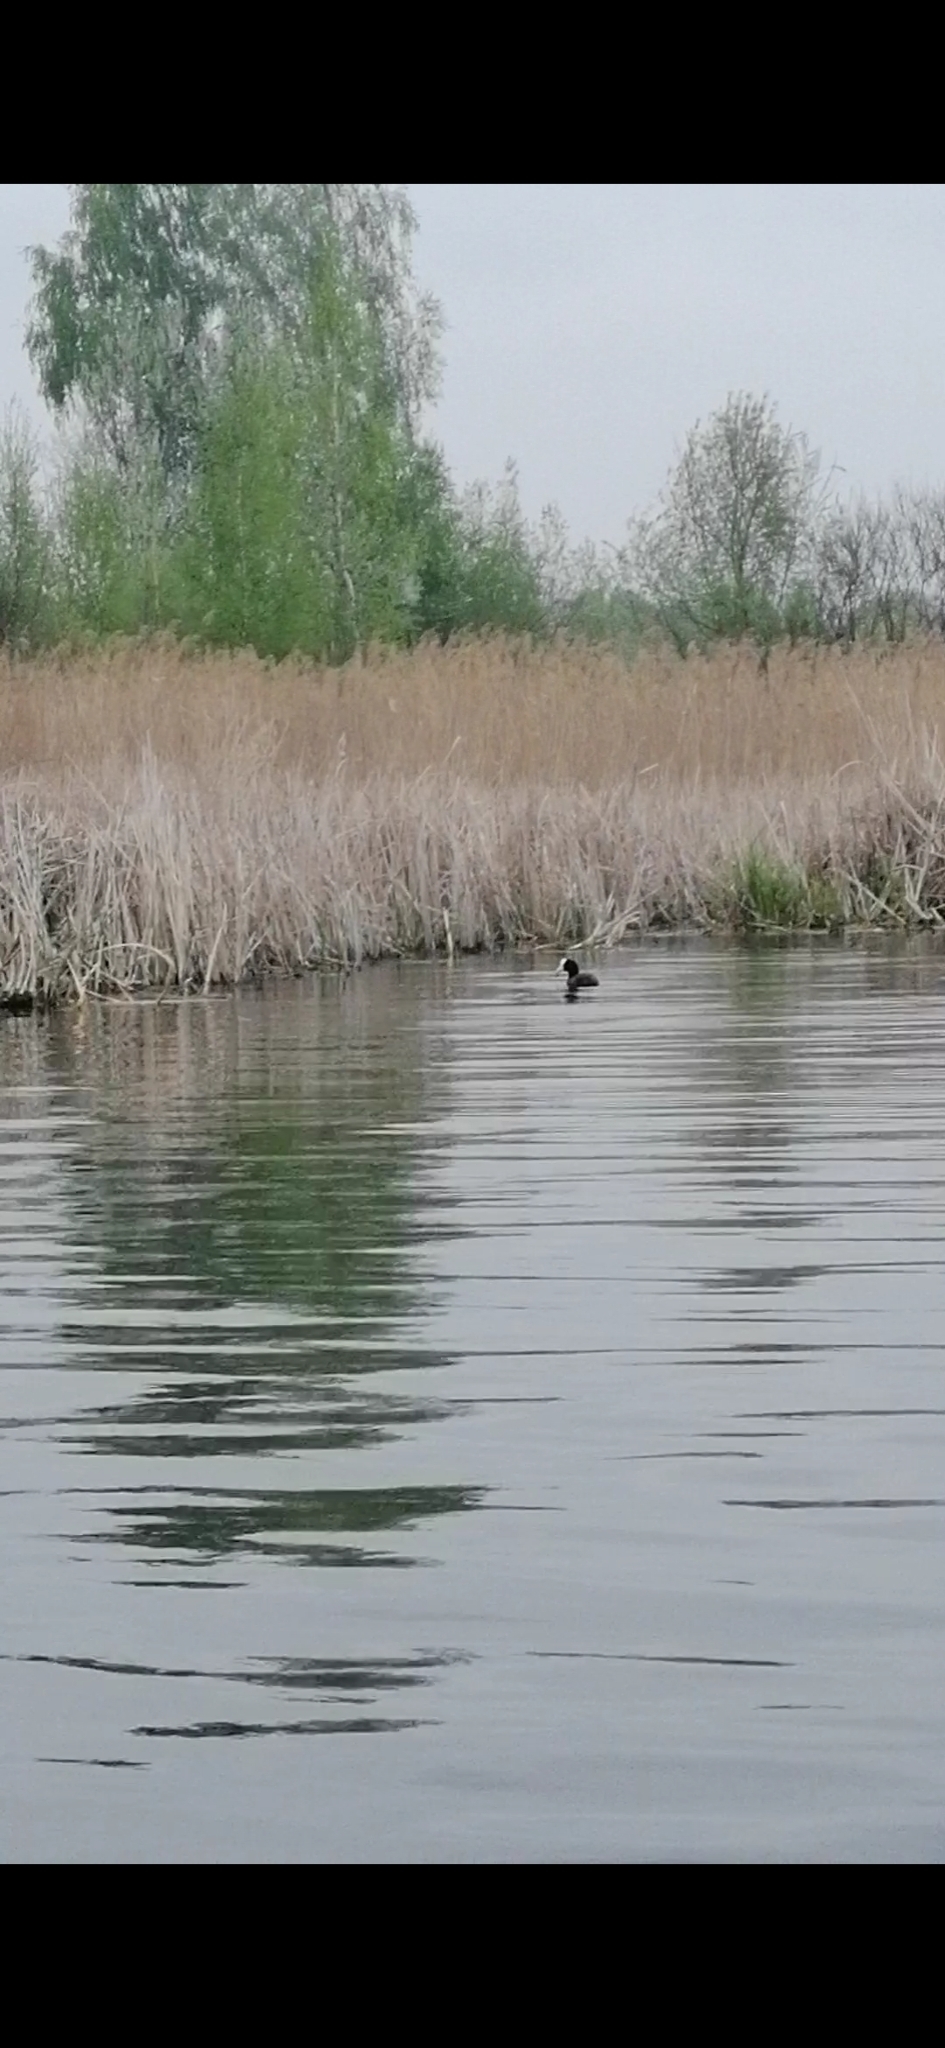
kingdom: Animalia
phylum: Chordata
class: Aves
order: Gruiformes
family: Rallidae
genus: Fulica
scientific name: Fulica atra
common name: Eurasian coot
